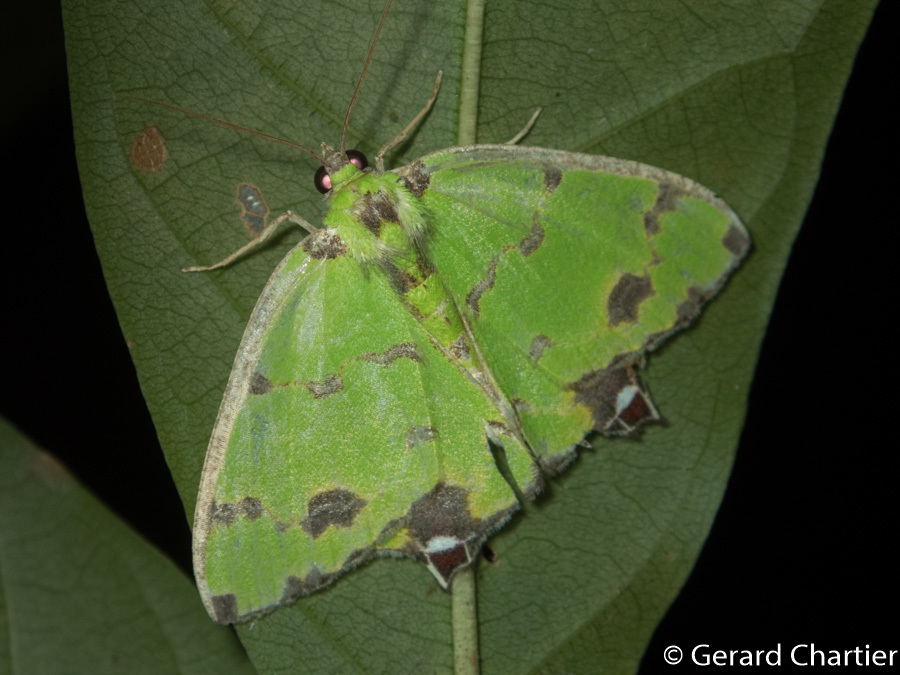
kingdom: Animalia
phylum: Arthropoda
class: Insecta
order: Lepidoptera
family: Geometridae
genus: Agathia
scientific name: Agathia lycaenaria
